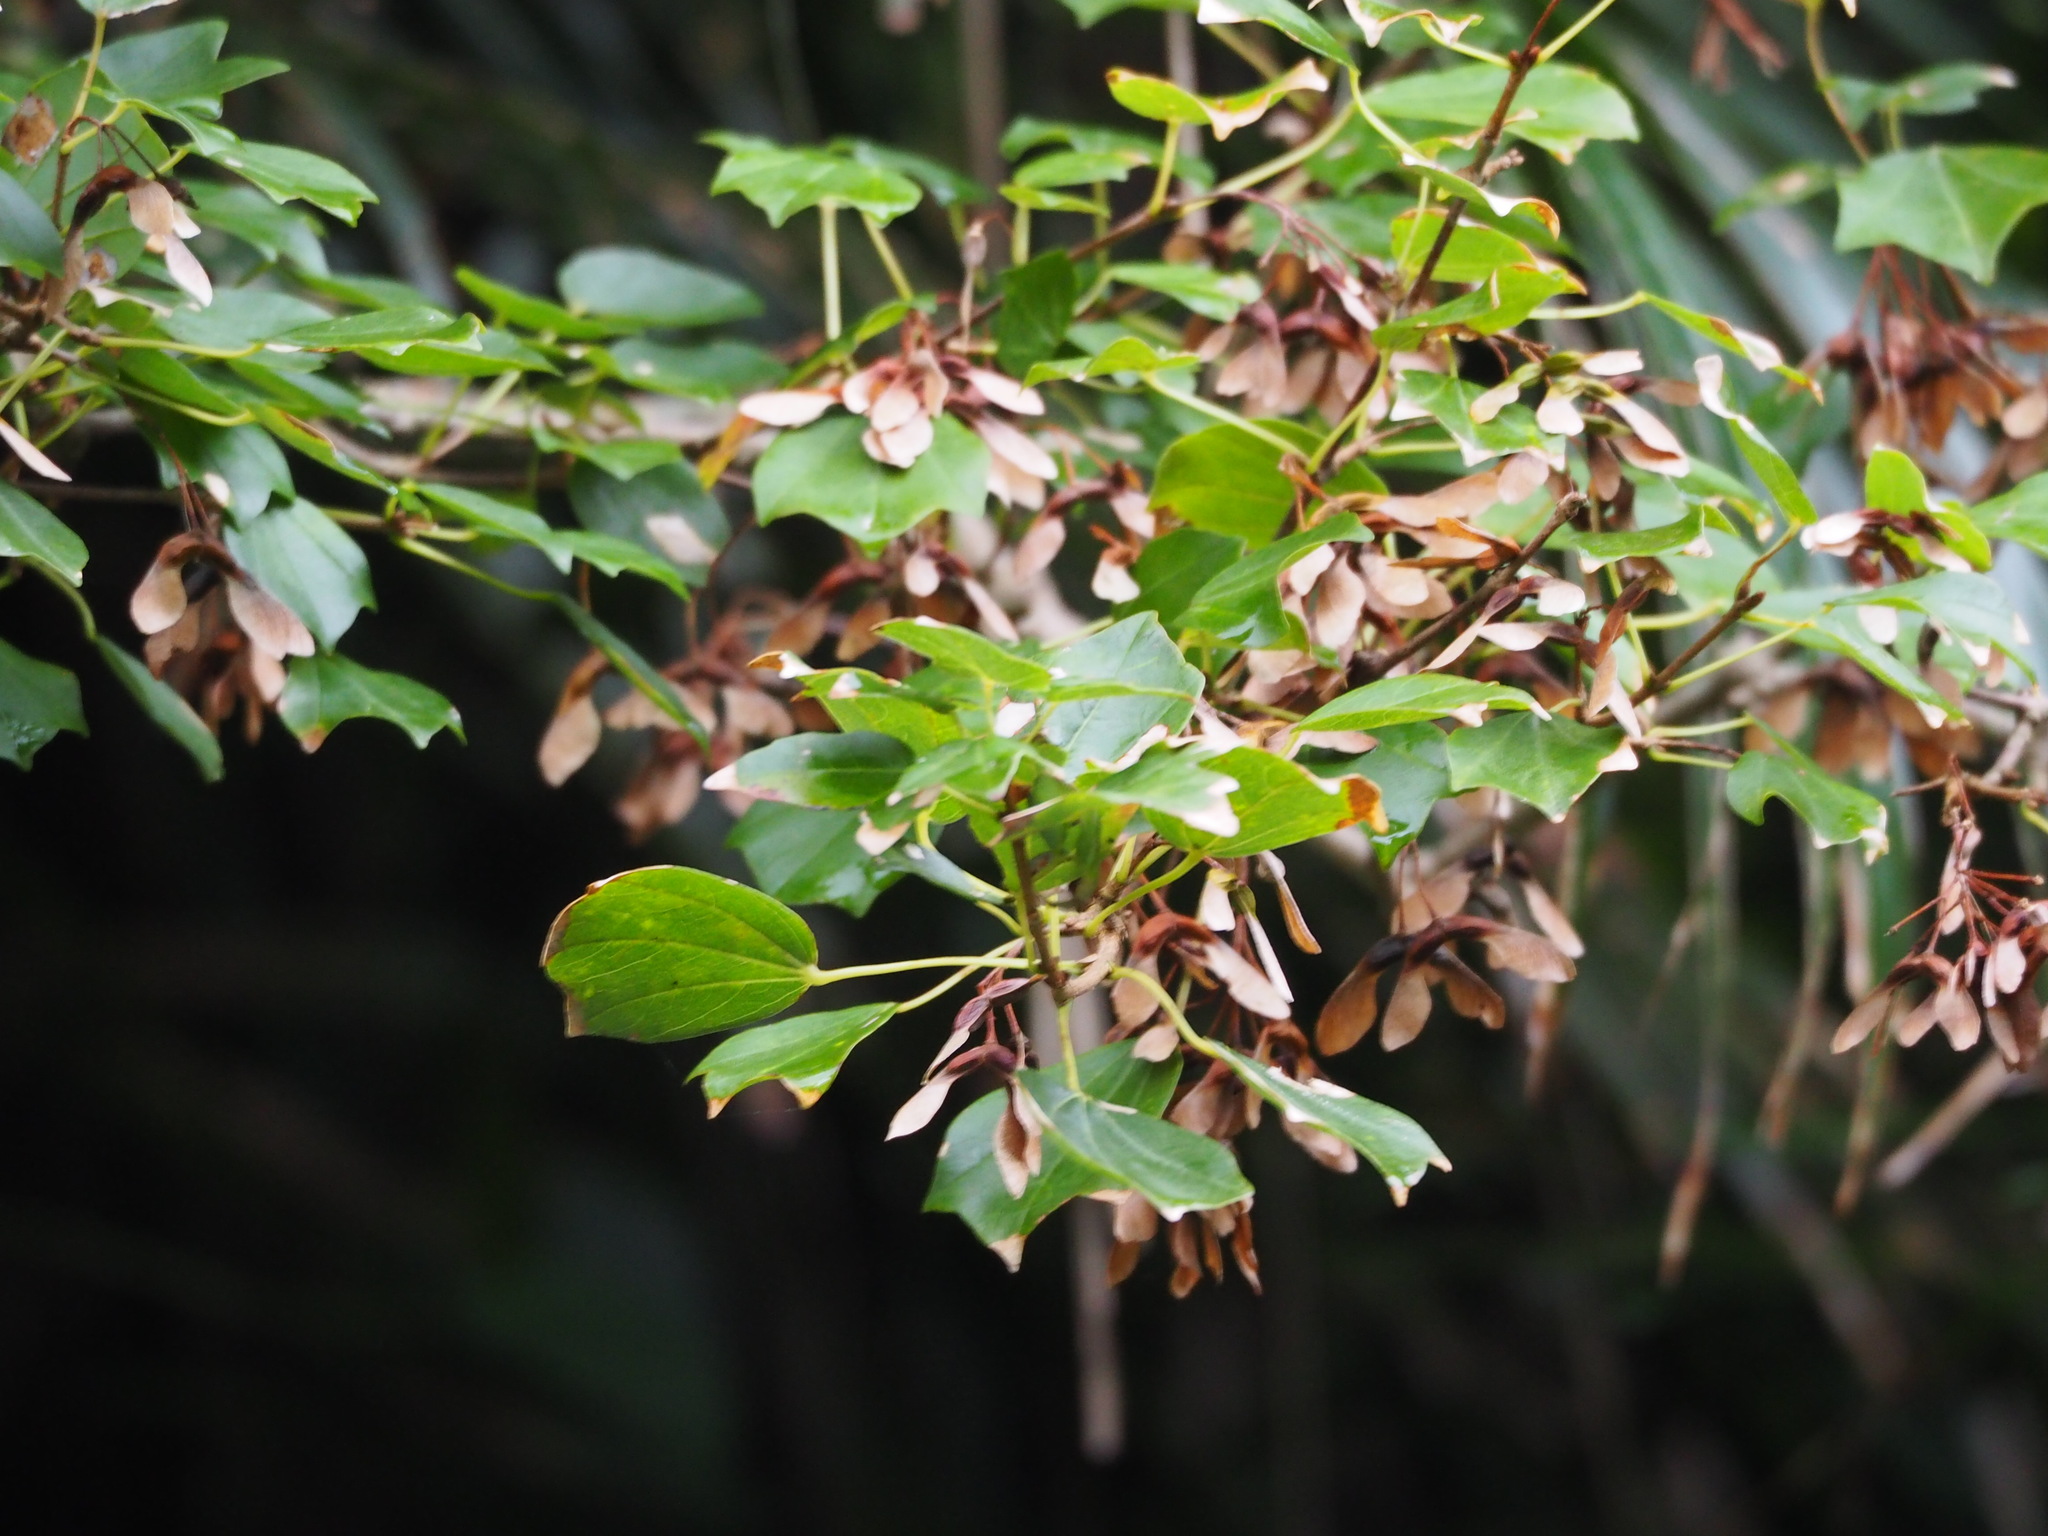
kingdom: Plantae
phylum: Tracheophyta
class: Magnoliopsida
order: Sapindales
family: Sapindaceae
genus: Acer
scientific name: Acer buergerianum
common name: Trident maple
